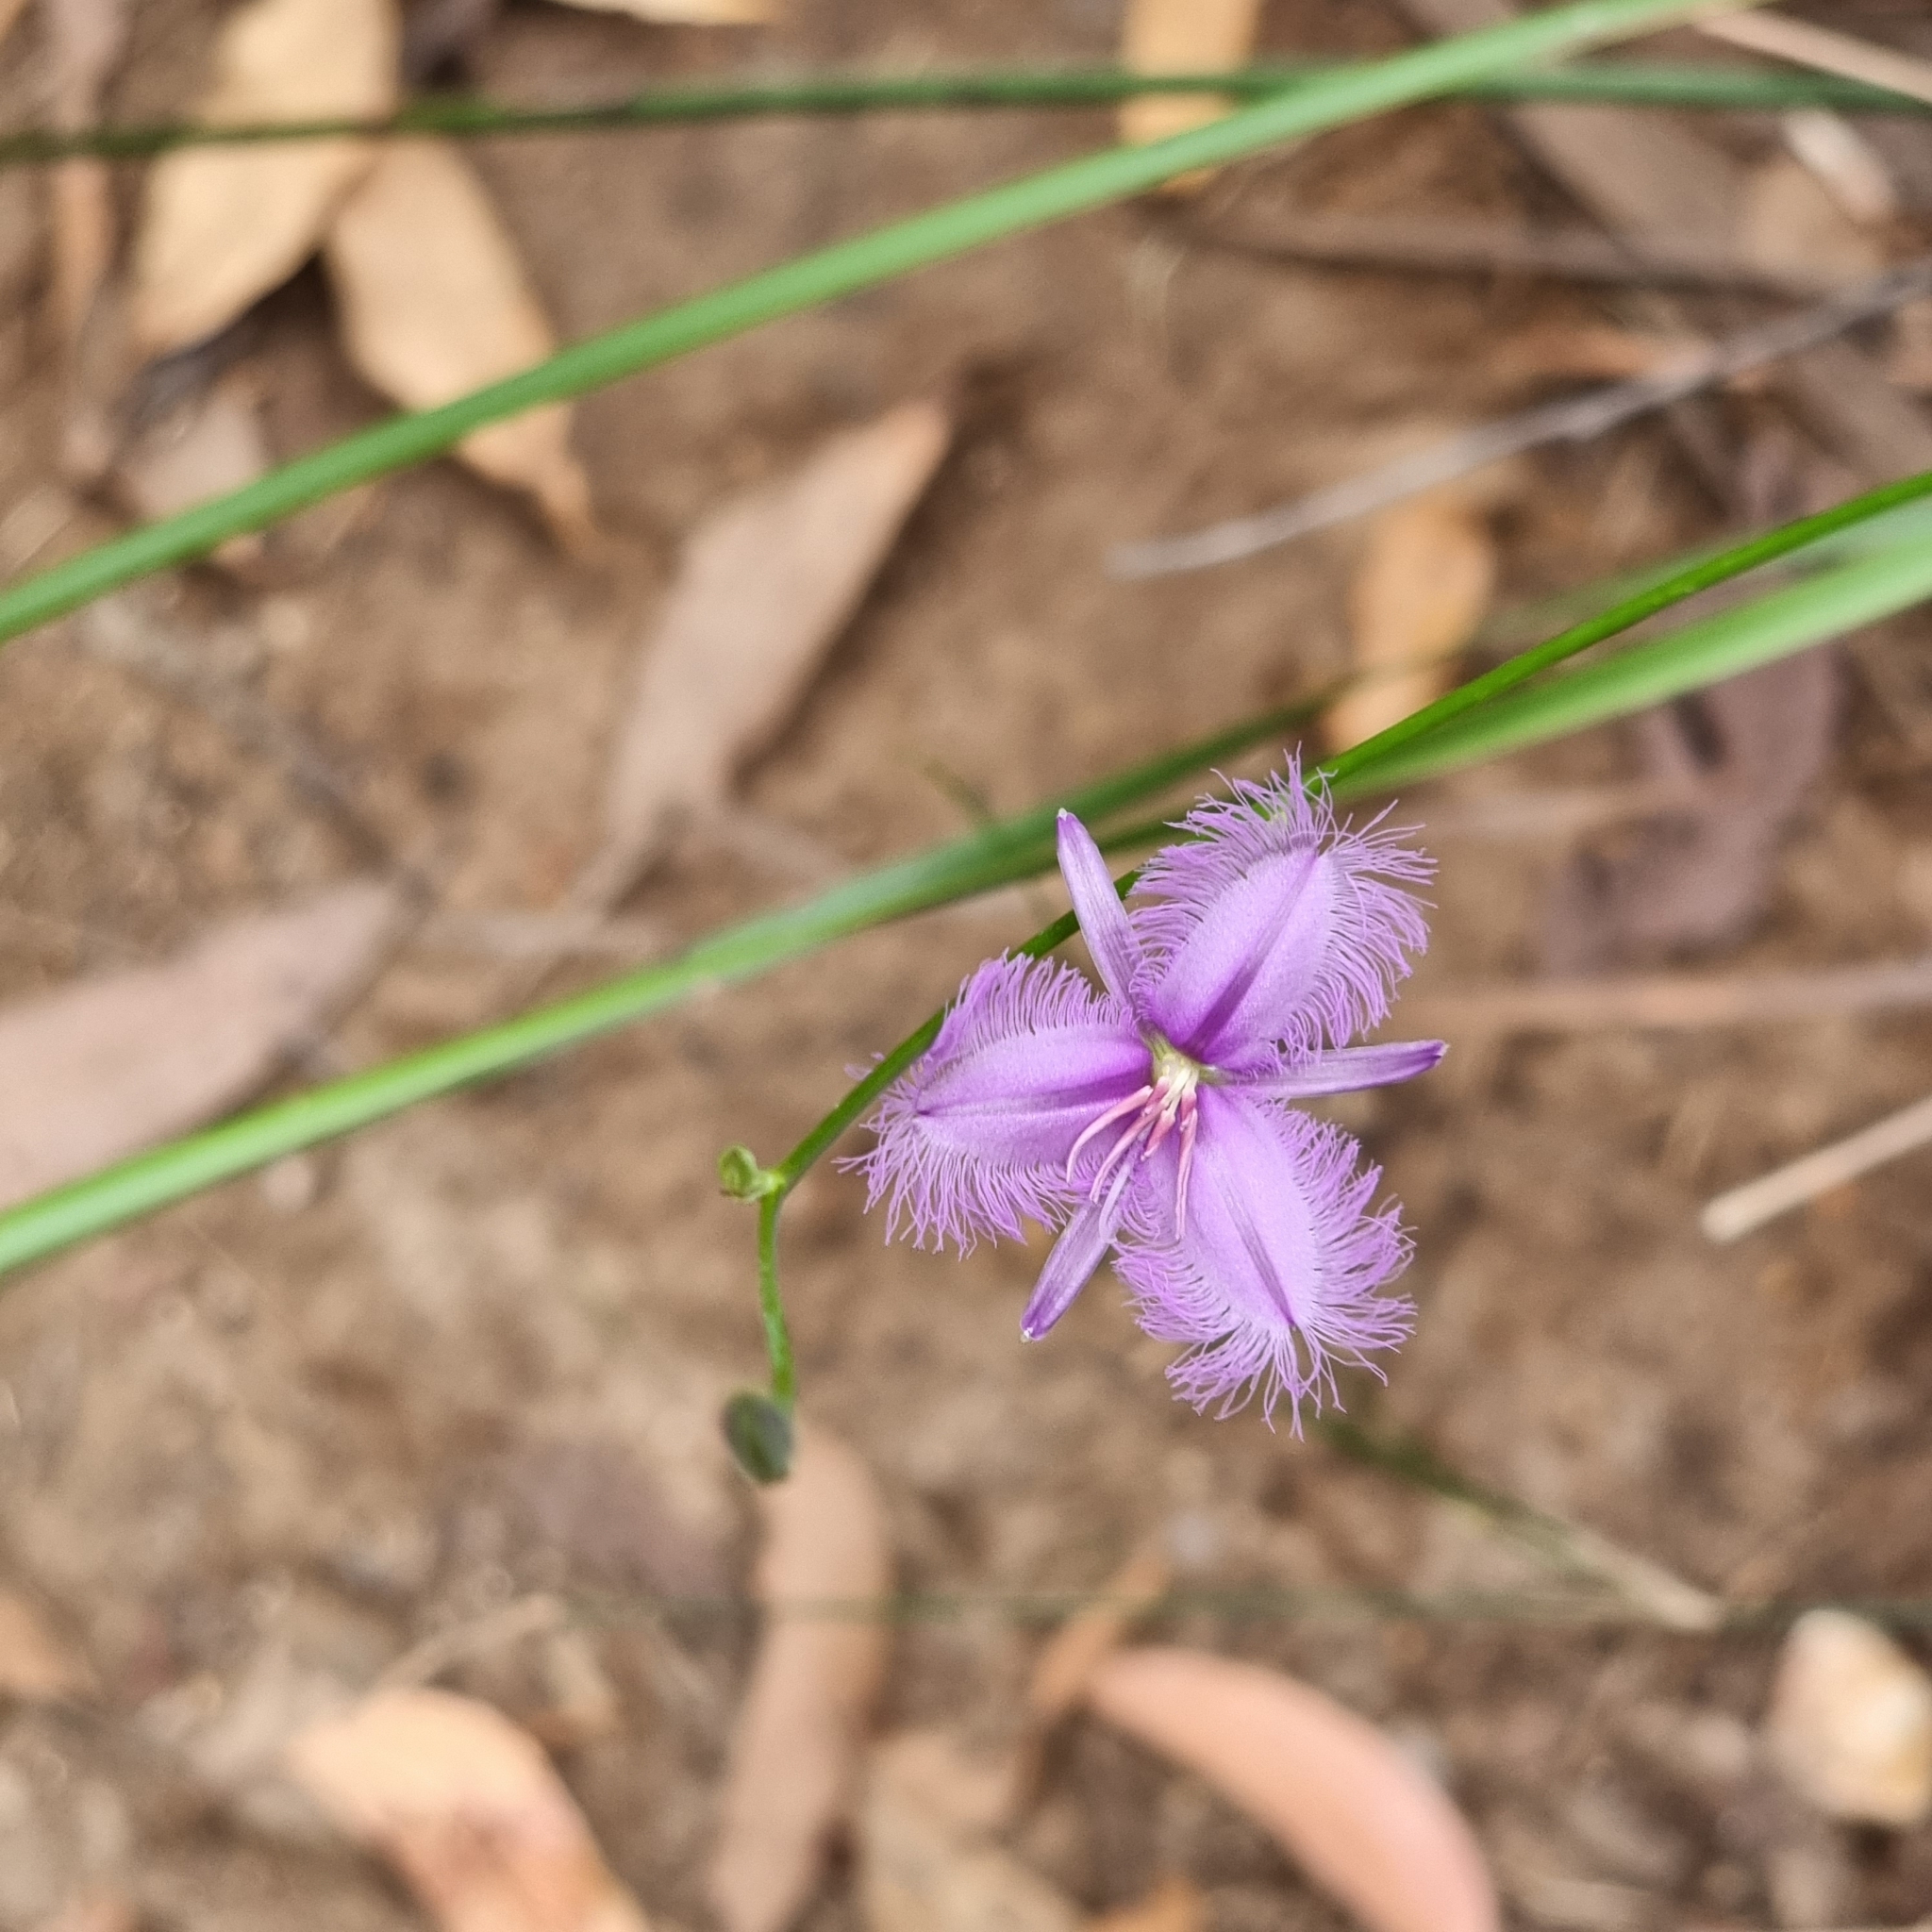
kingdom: Plantae
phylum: Tracheophyta
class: Liliopsida
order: Asparagales
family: Asparagaceae
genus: Thysanotus
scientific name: Thysanotus tuberosus
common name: Common fringed-lily
